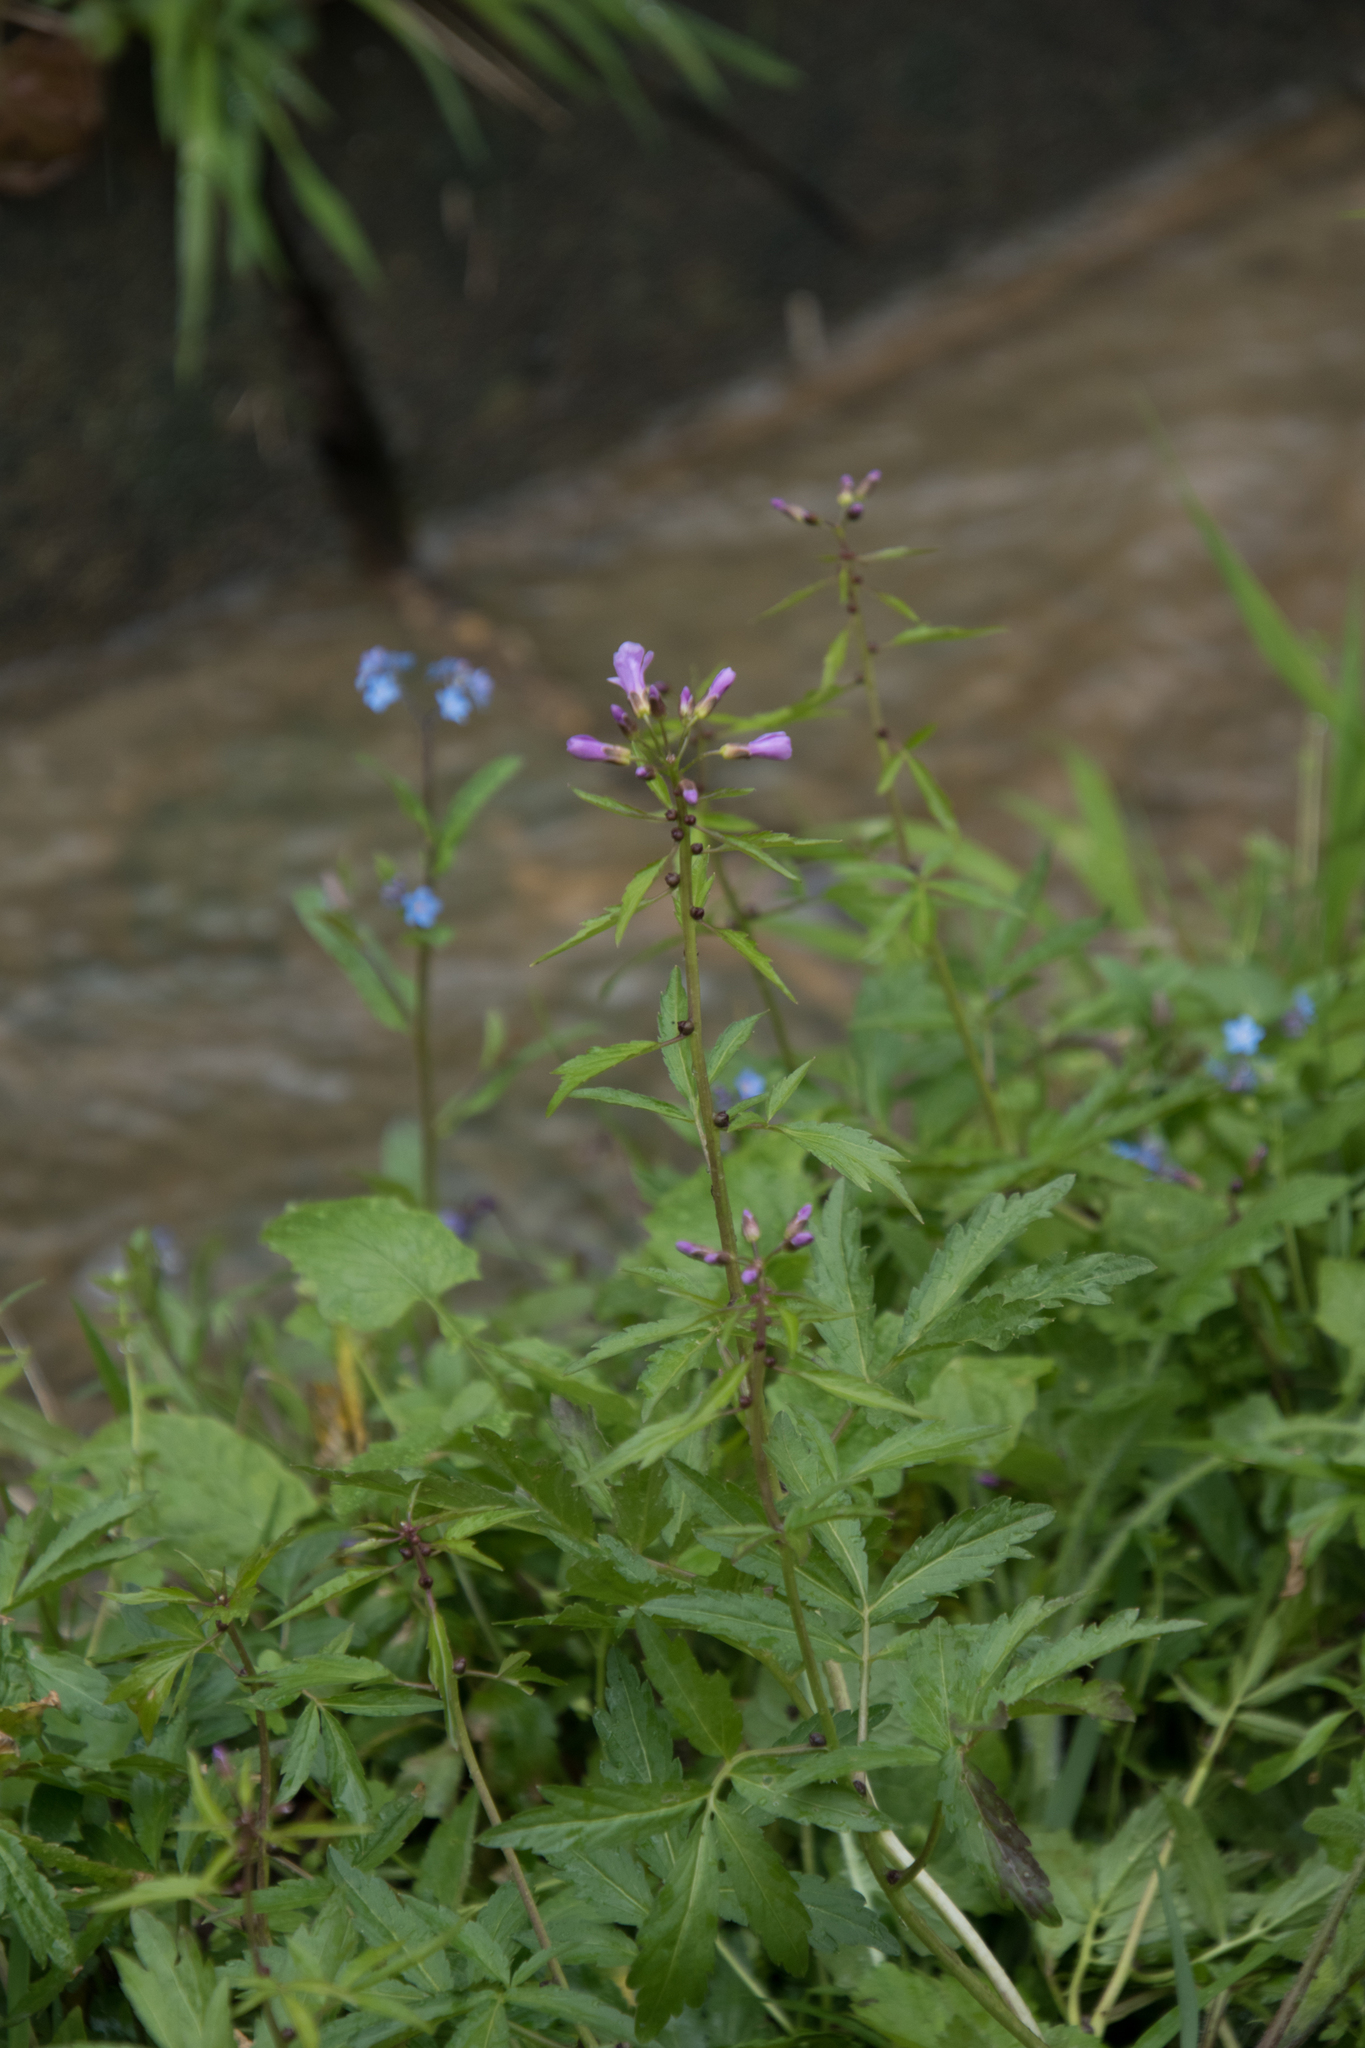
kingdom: Plantae
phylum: Tracheophyta
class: Magnoliopsida
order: Brassicales
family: Brassicaceae
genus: Cardamine
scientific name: Cardamine bulbifera
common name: Coralroot bittercress
